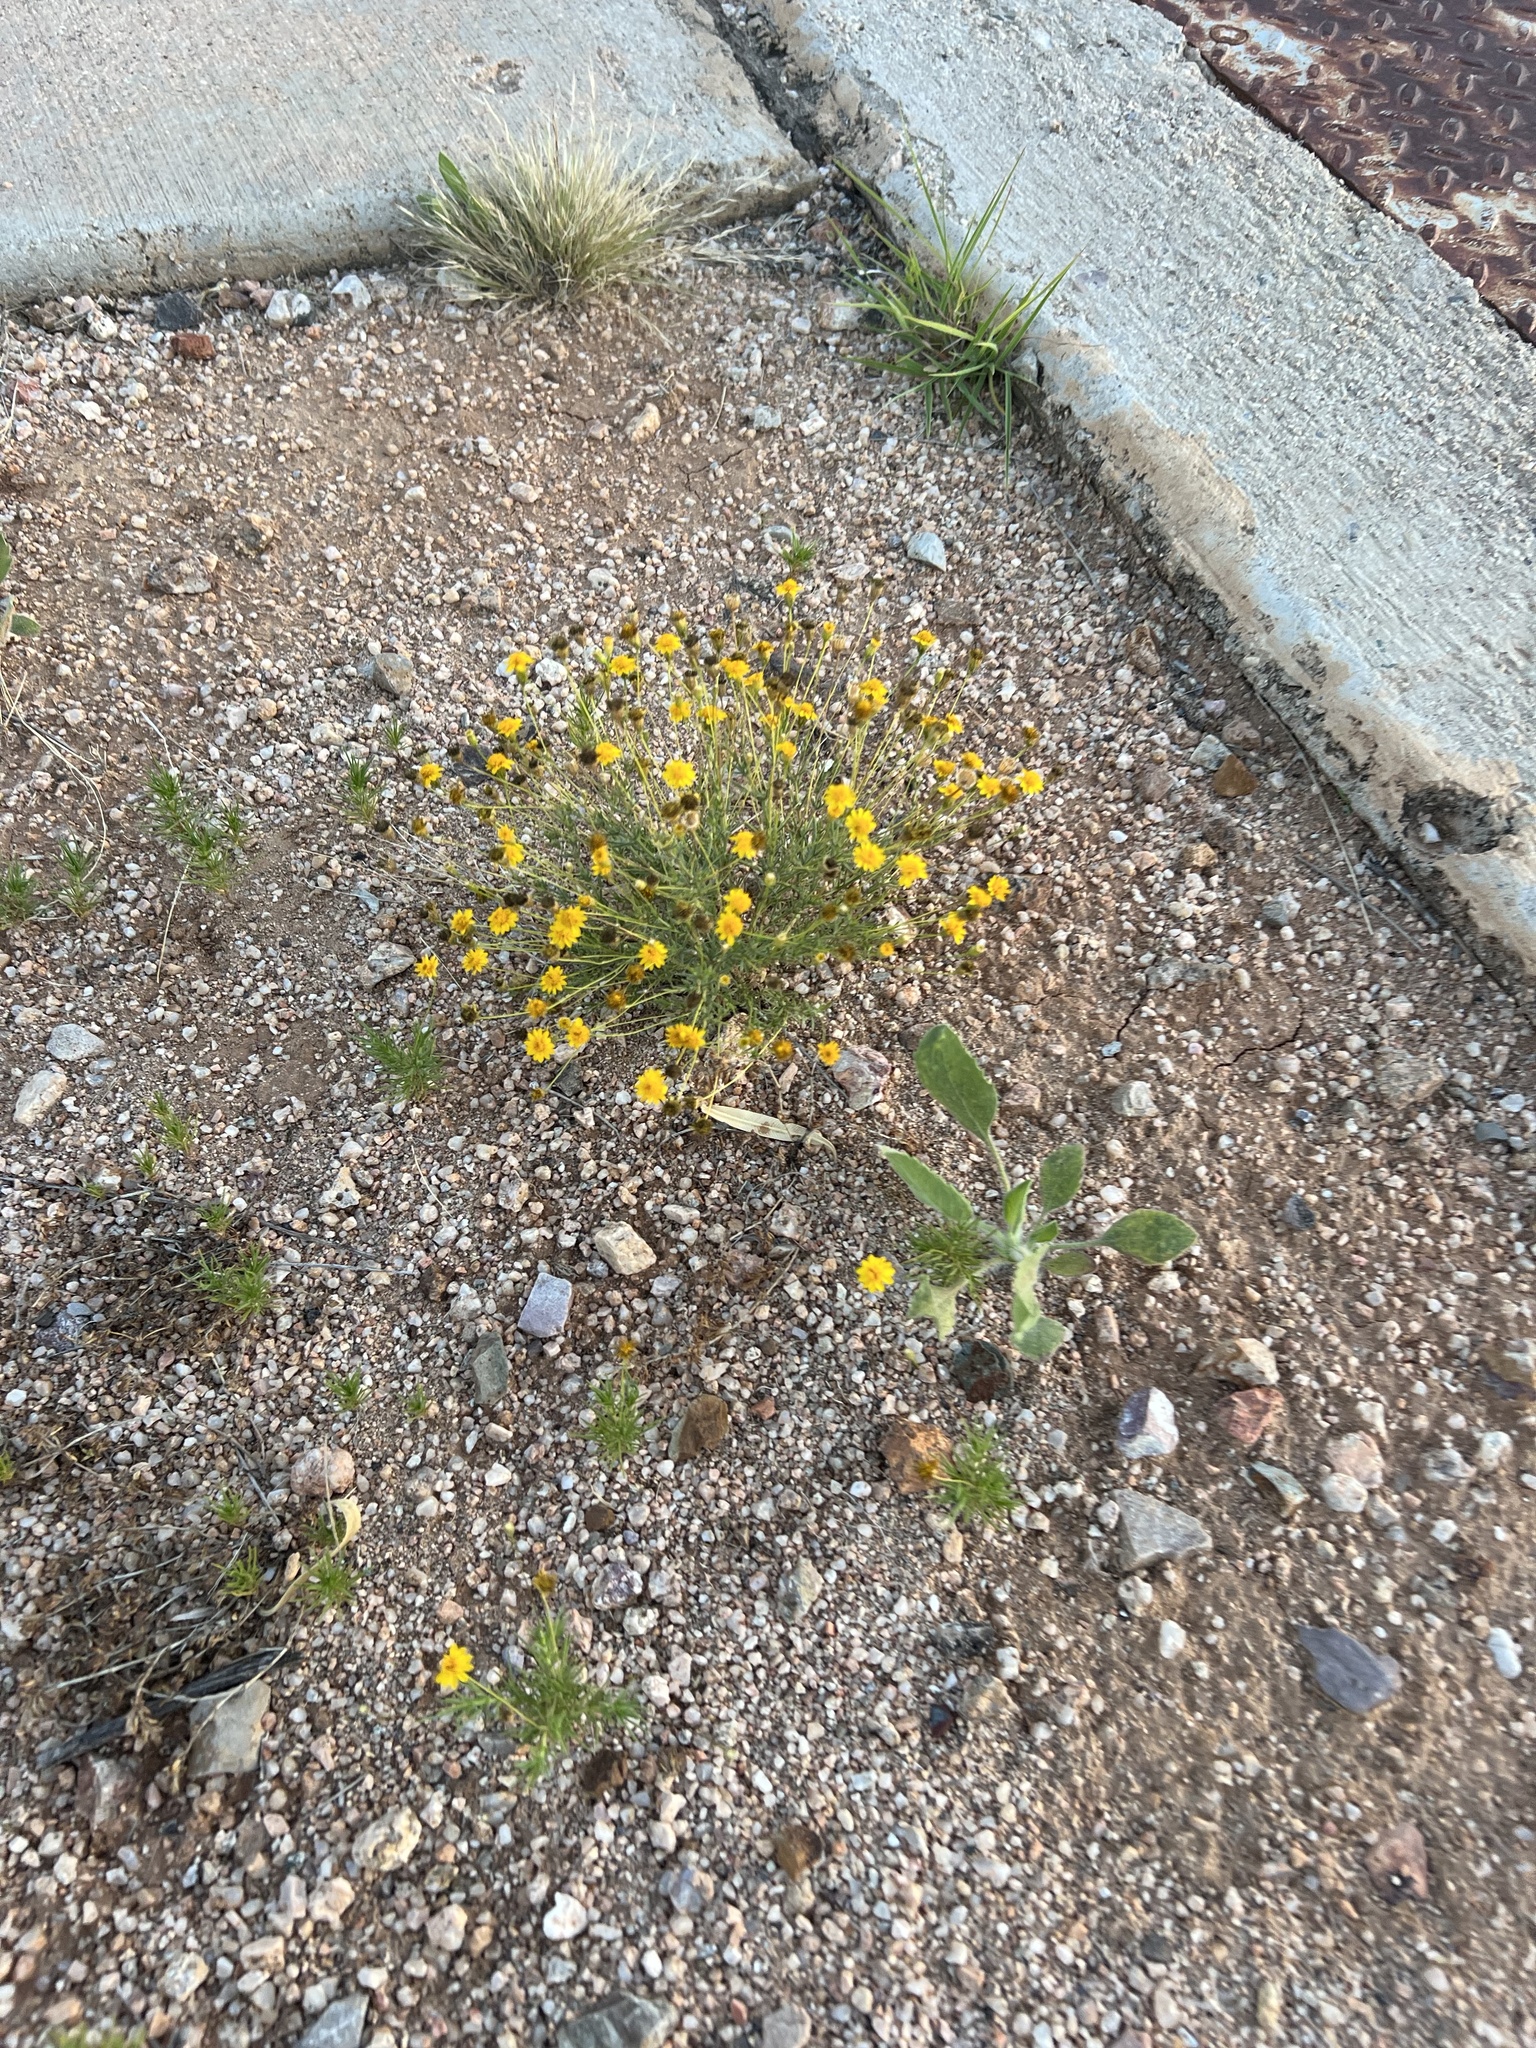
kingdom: Plantae
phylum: Tracheophyta
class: Magnoliopsida
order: Asterales
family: Asteraceae
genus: Thymophylla
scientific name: Thymophylla pentachaeta
